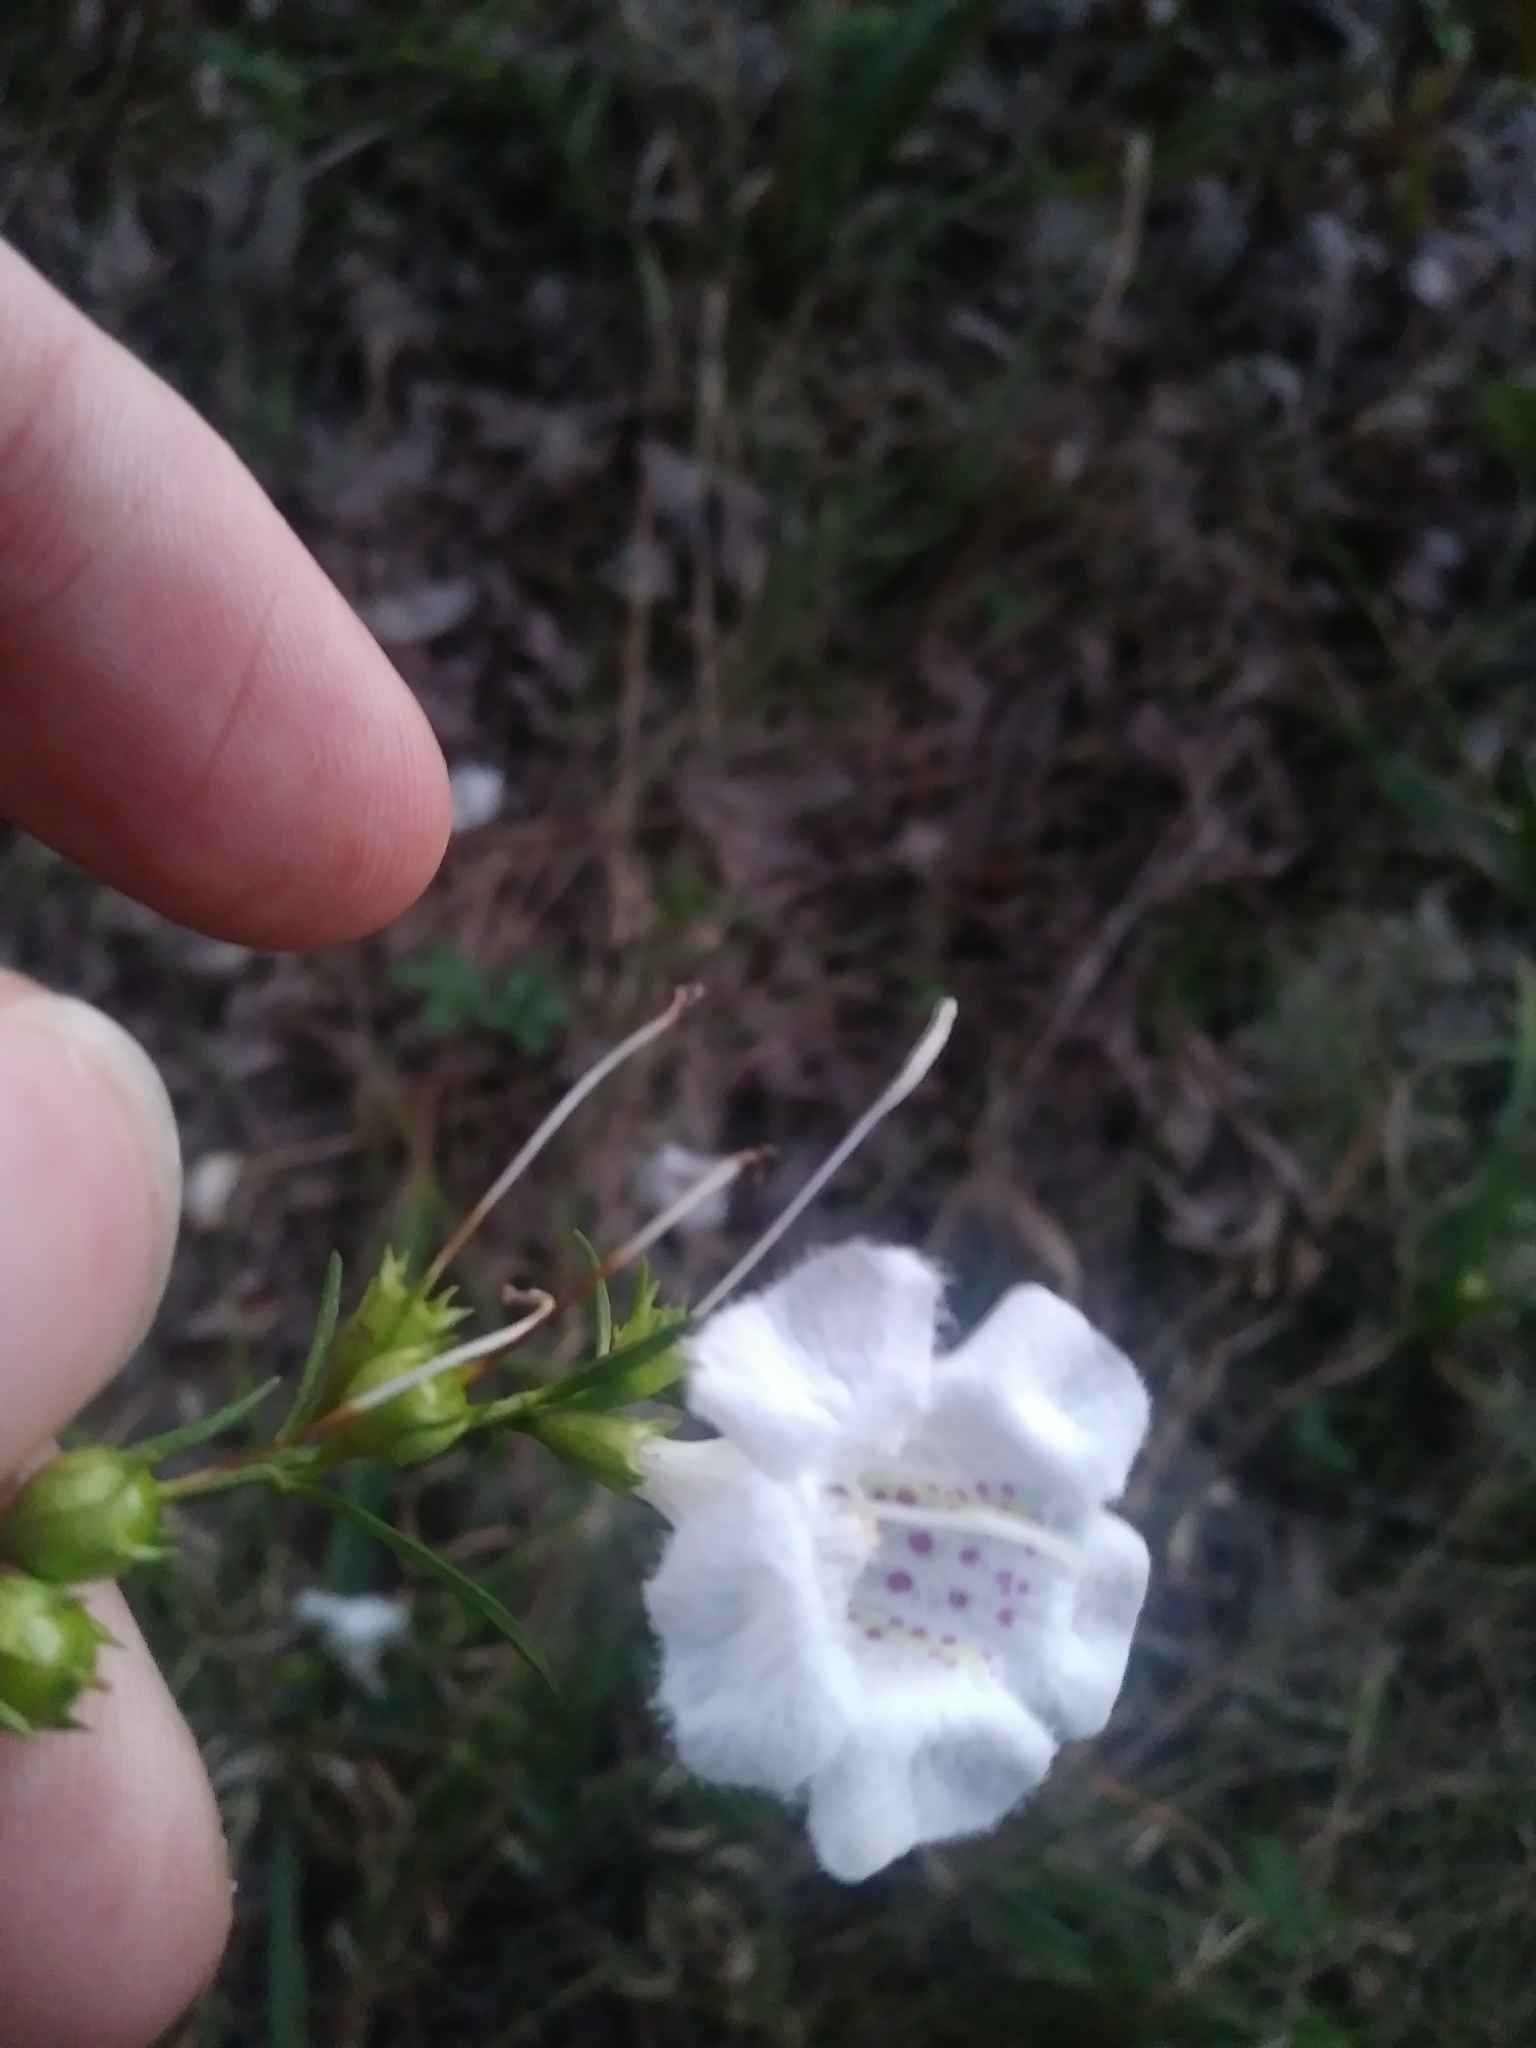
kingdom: Plantae
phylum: Tracheophyta
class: Magnoliopsida
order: Lamiales
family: Orobanchaceae
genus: Agalinis
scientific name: Agalinis purpurea
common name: Purple false foxglove
